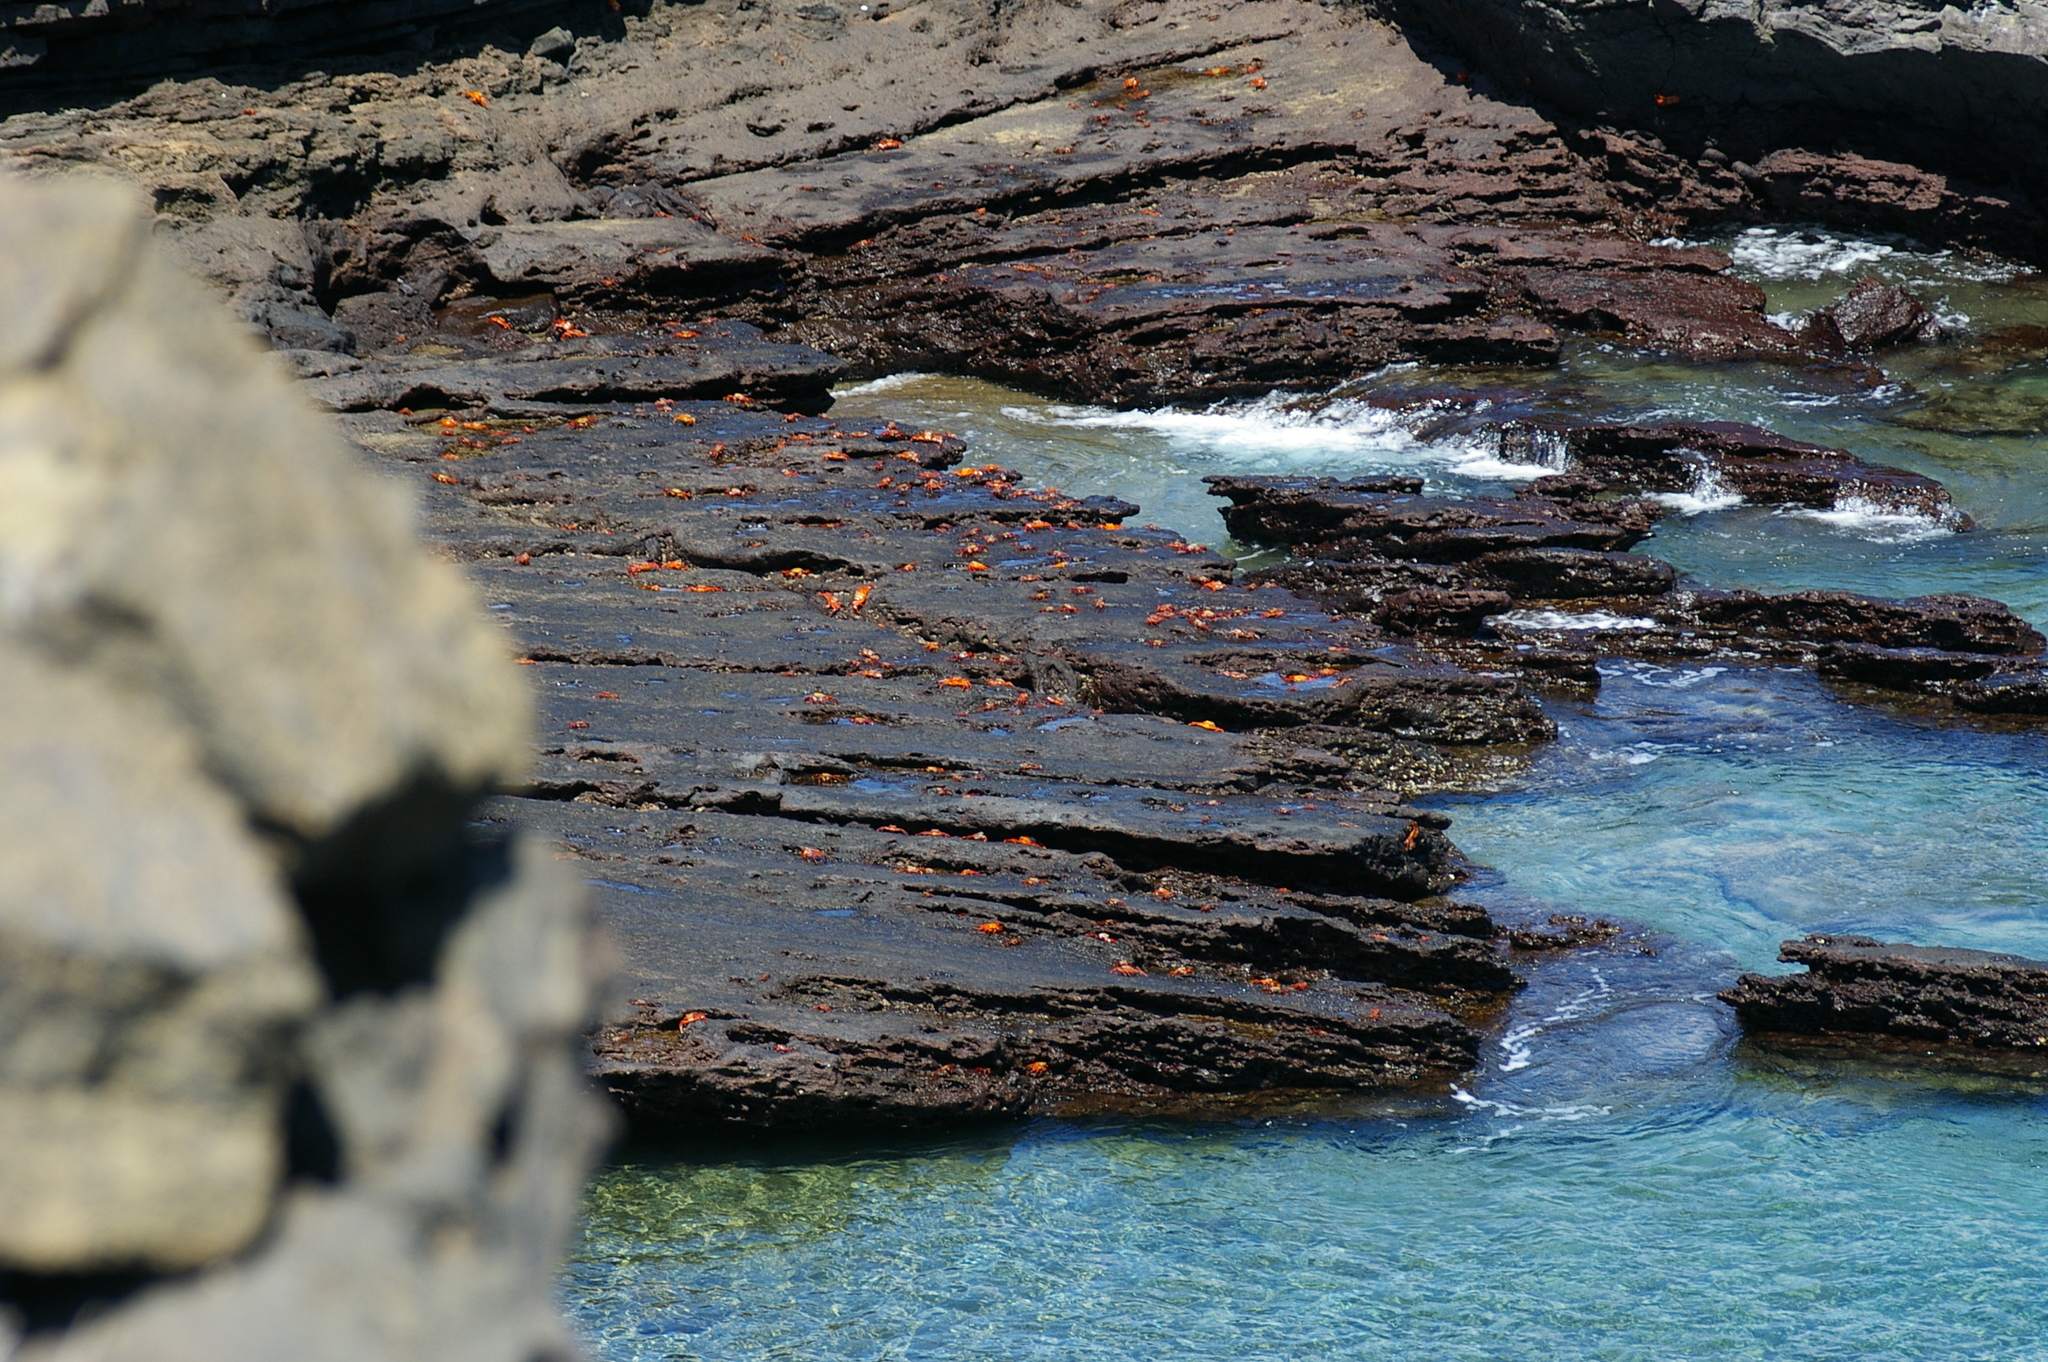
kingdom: Animalia
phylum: Arthropoda
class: Malacostraca
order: Decapoda
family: Grapsidae
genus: Grapsus
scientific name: Grapsus grapsus
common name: Sally lightfoot
